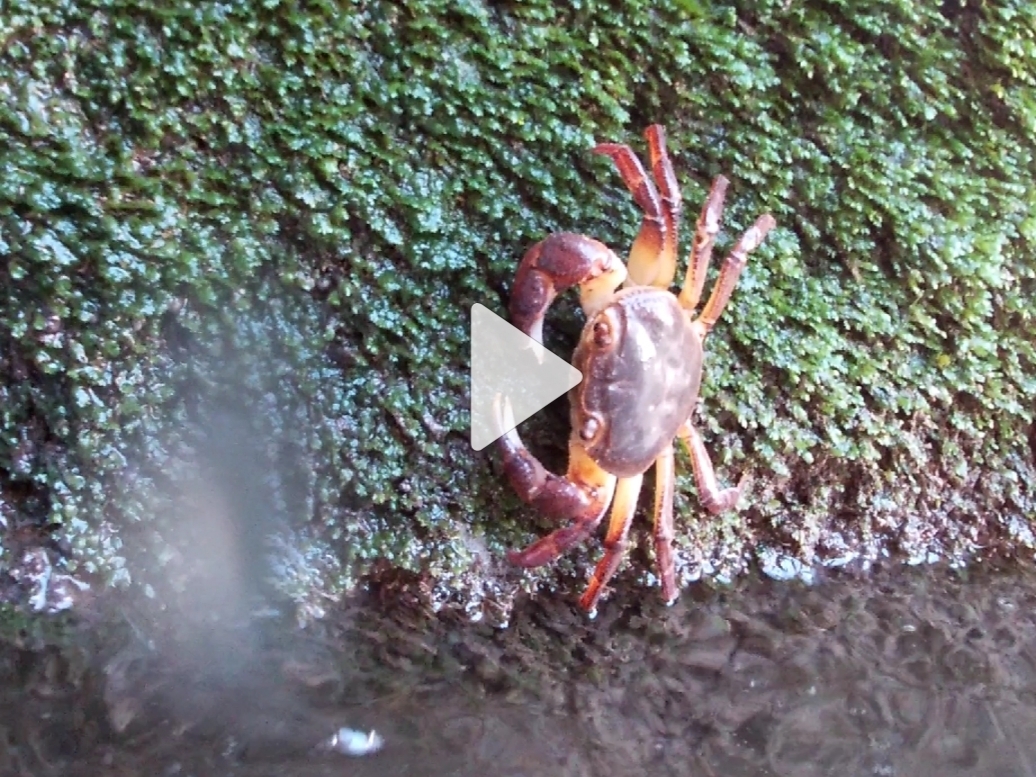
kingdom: Animalia
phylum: Arthropoda
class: Malacostraca
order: Decapoda
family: Potamidae
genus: Potamon
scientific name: Potamon fluviatile
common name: Italian freshwater crab
